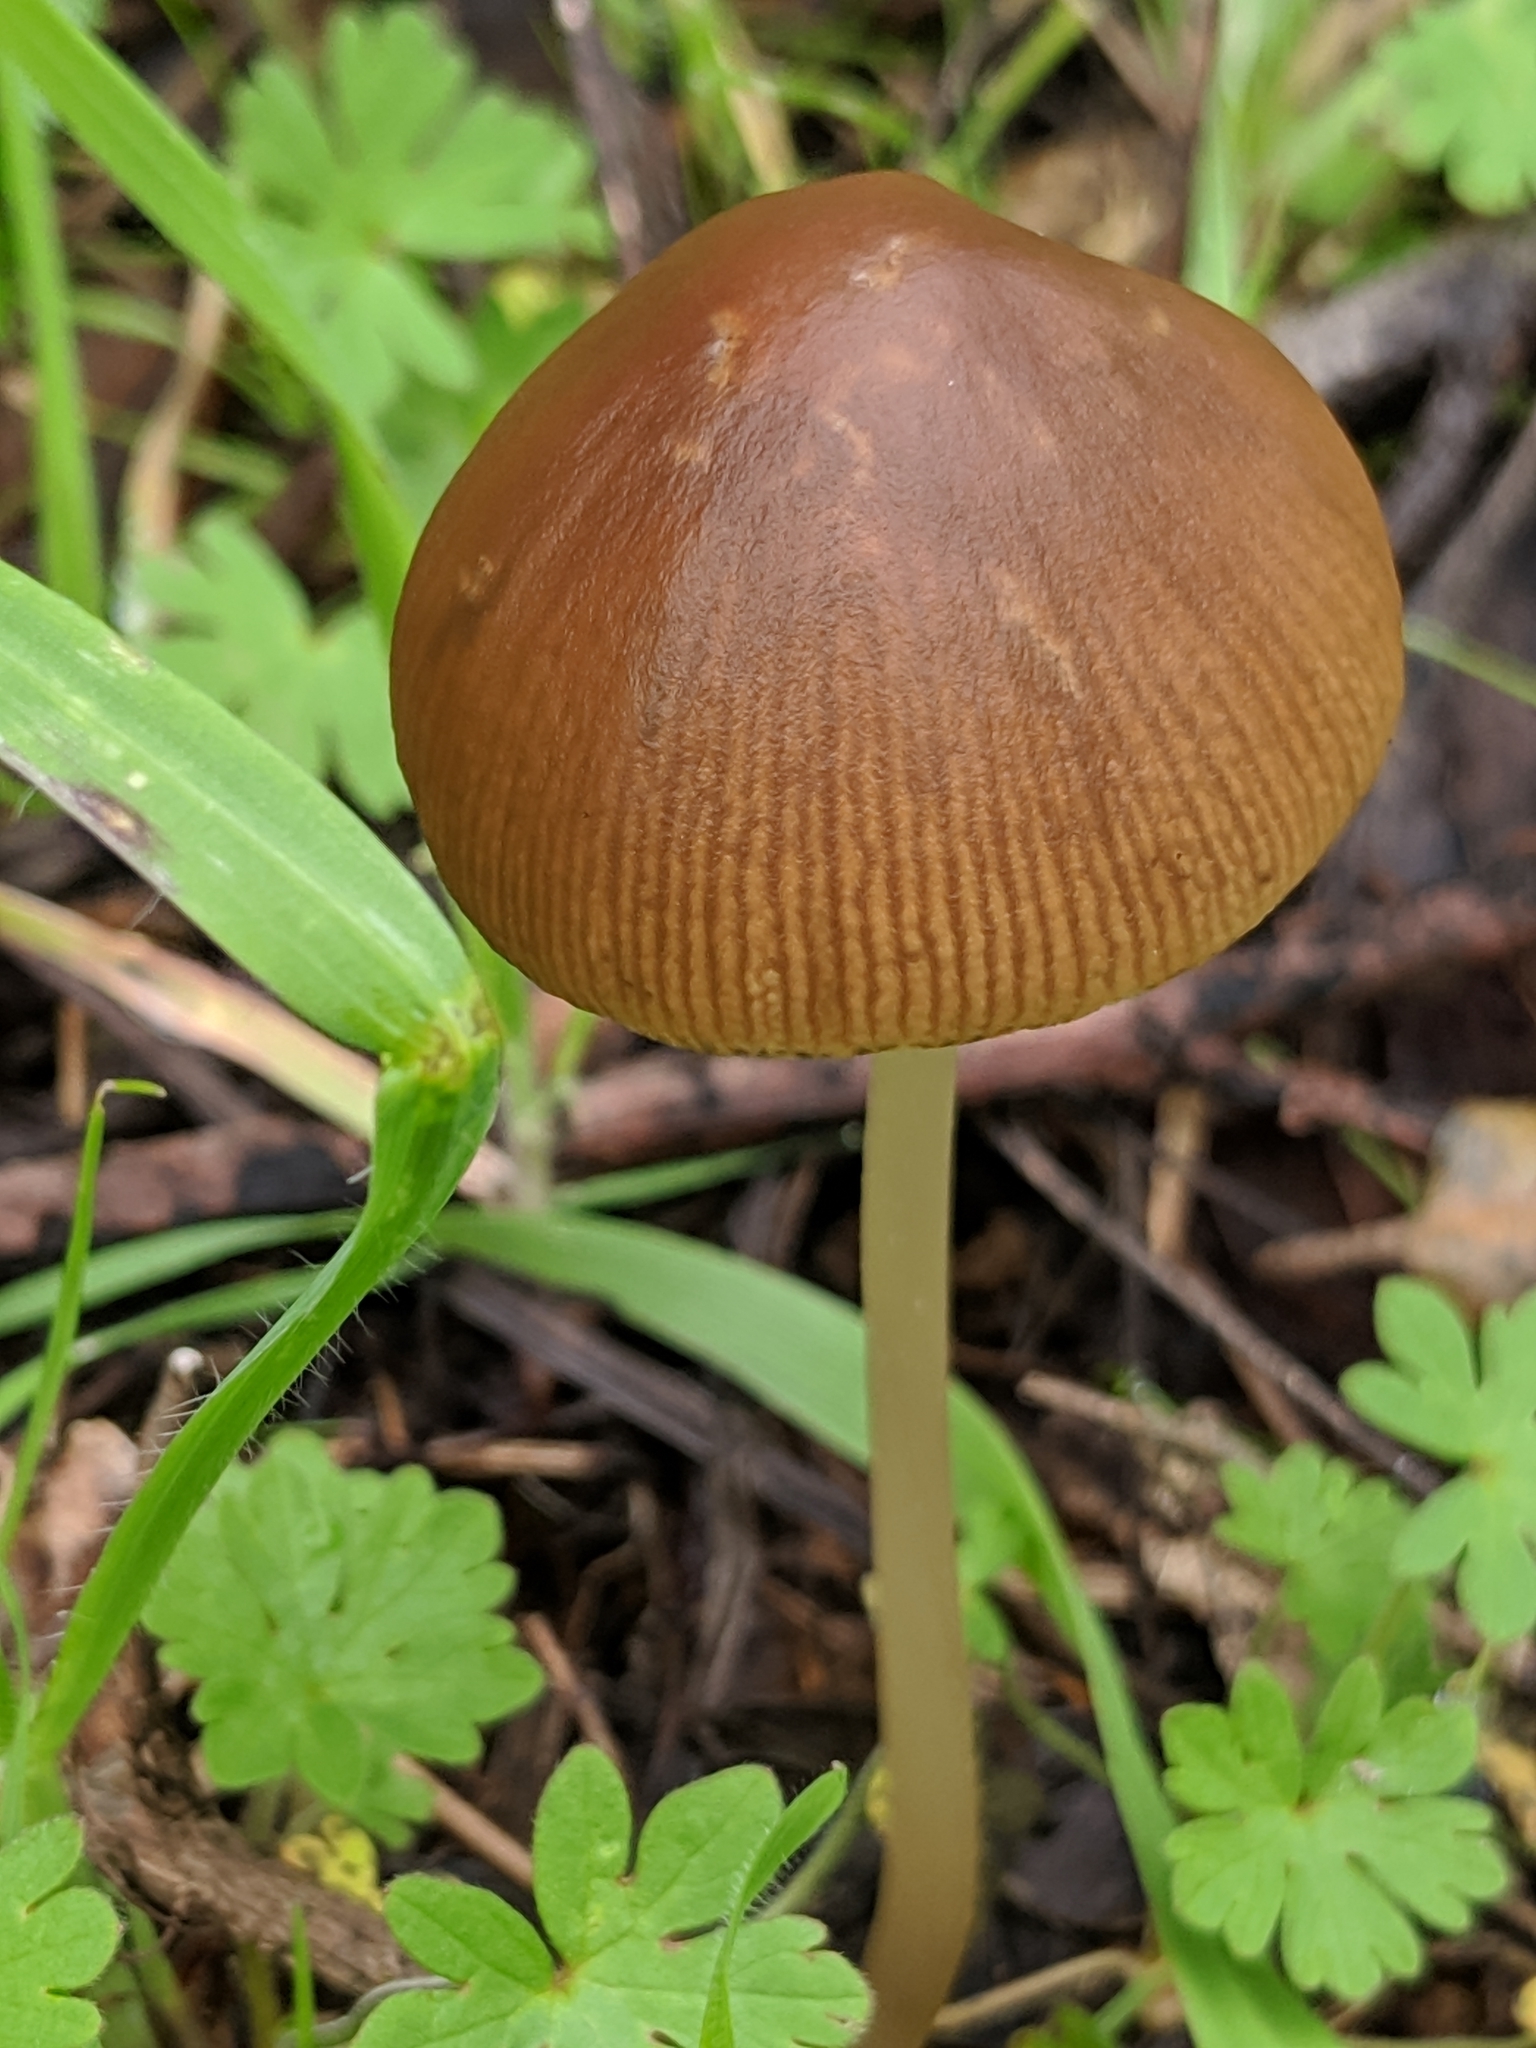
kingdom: Fungi
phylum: Basidiomycota
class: Agaricomycetes
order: Agaricales
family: Psathyrellaceae
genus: Parasola
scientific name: Parasola conopilea
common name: Conical brittlestem
